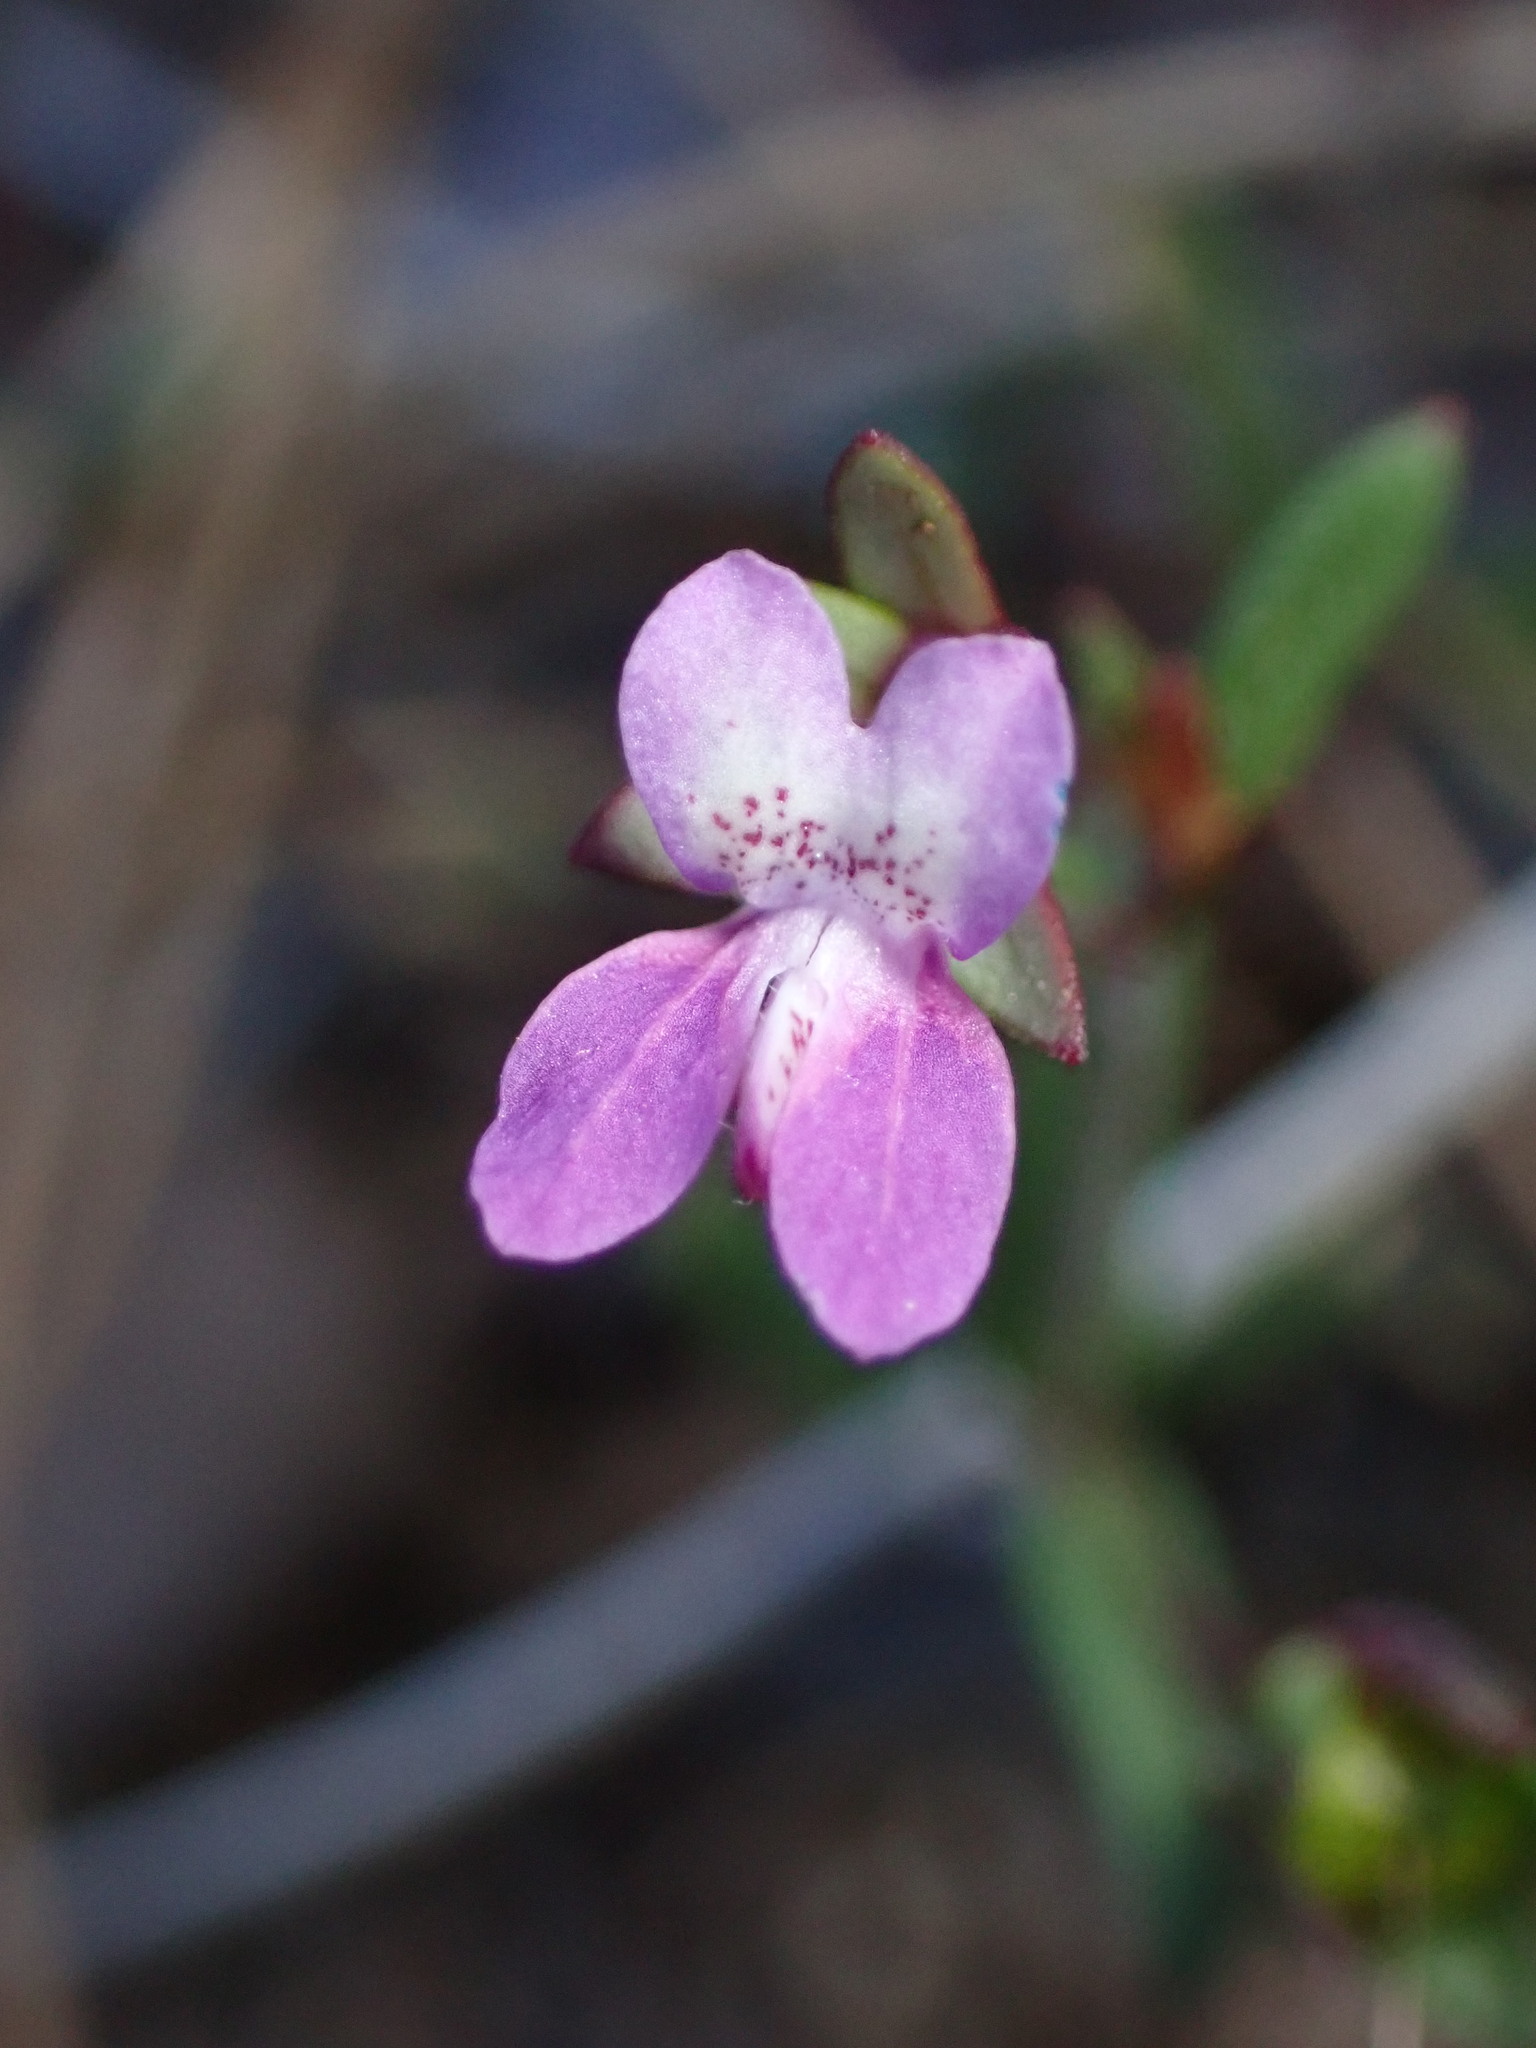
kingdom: Plantae
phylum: Tracheophyta
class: Magnoliopsida
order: Ericales
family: Primulaceae
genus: Dodecatheon
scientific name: Dodecatheon hendersonii
